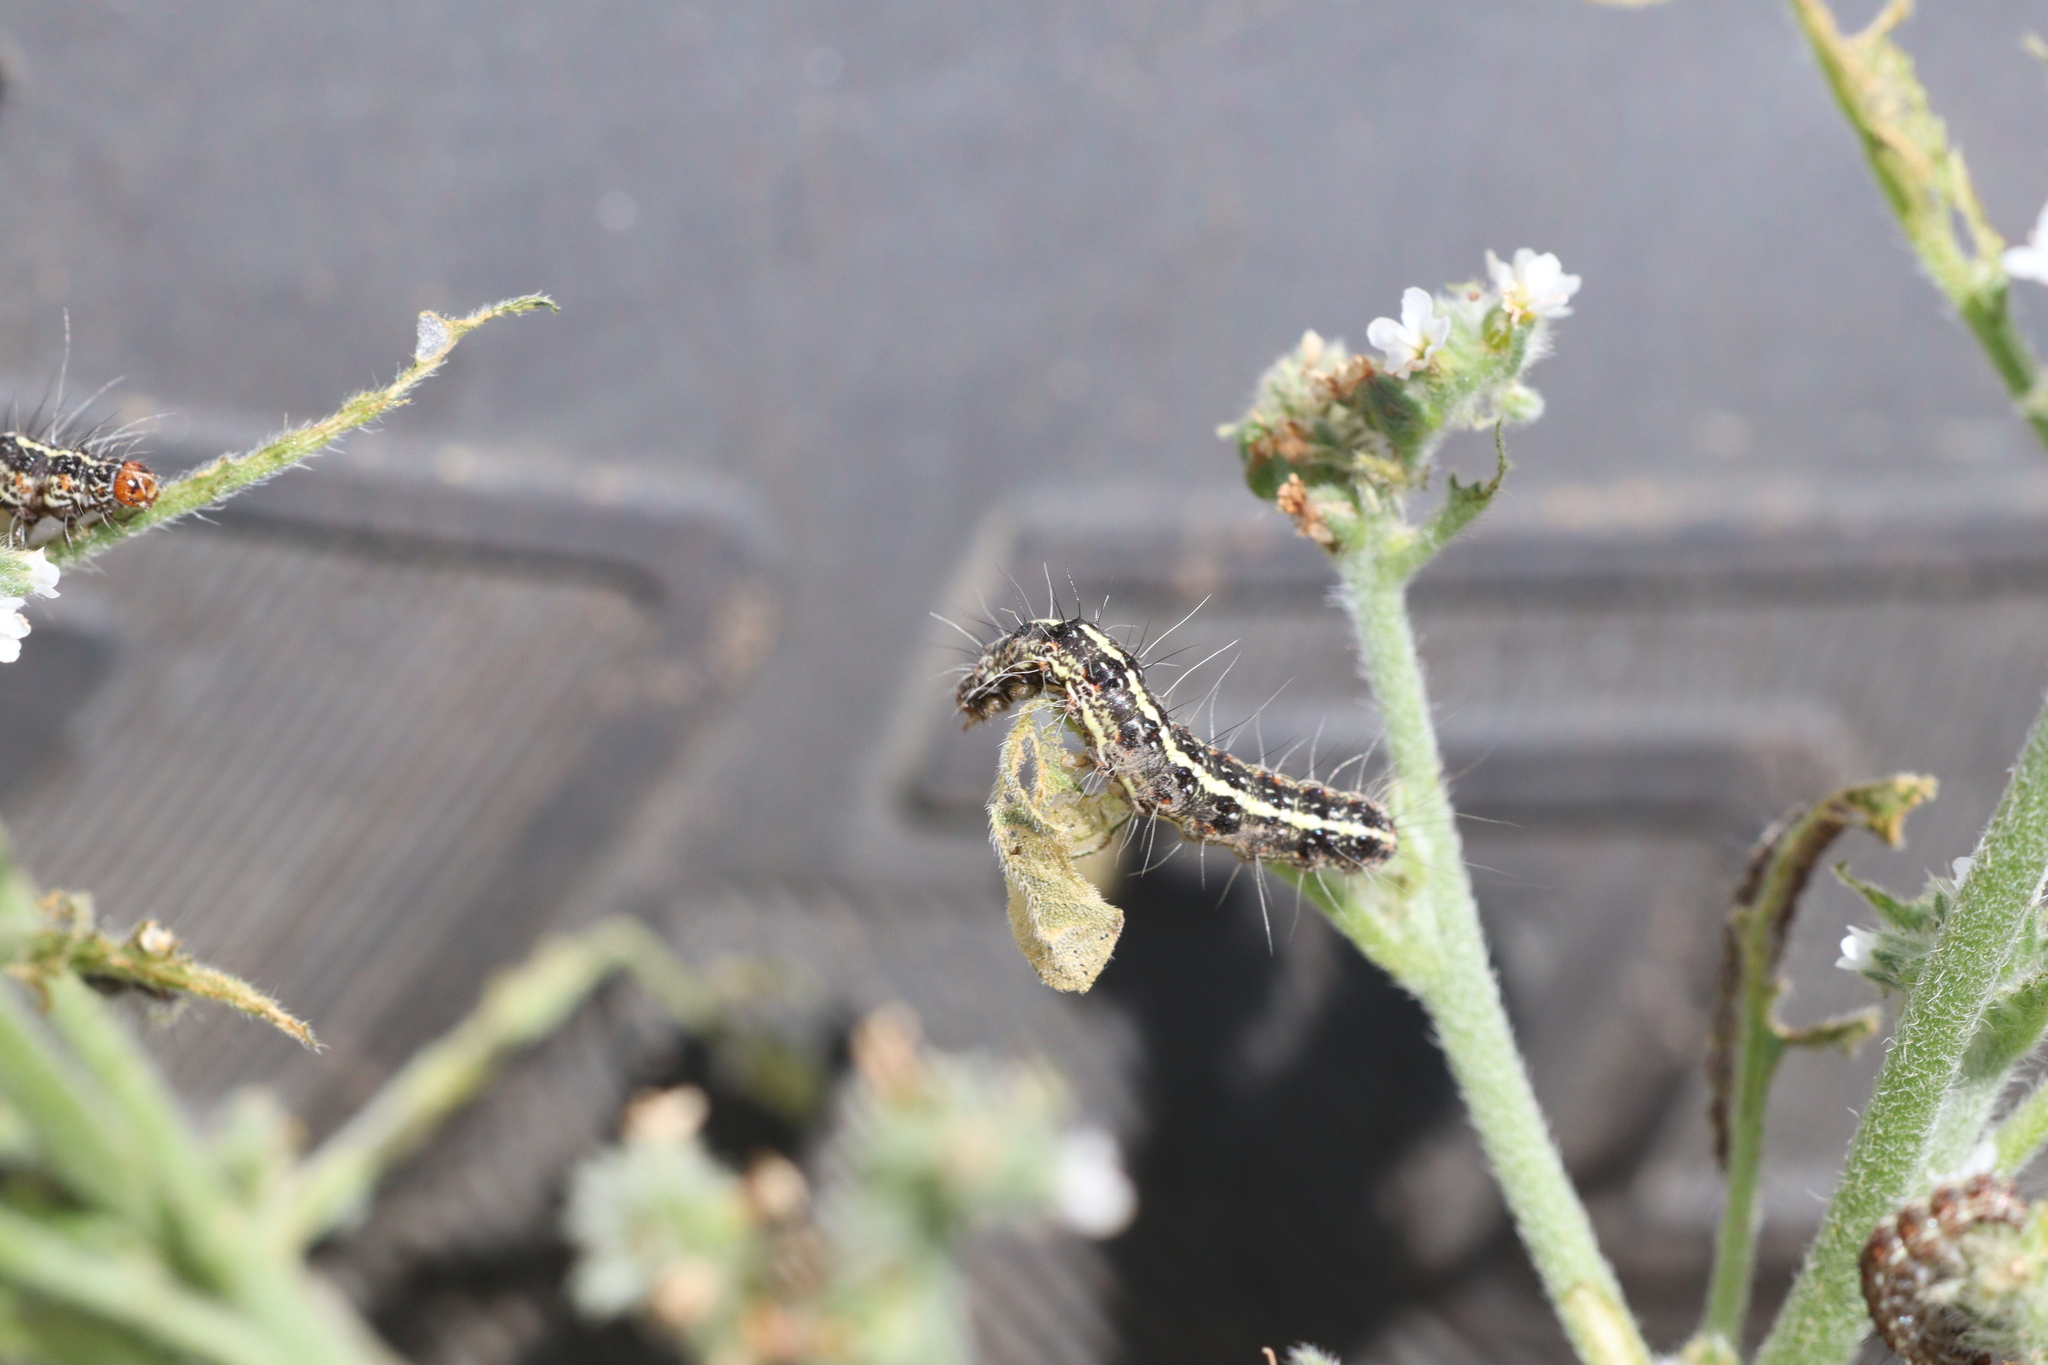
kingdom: Animalia
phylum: Arthropoda
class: Insecta
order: Lepidoptera
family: Erebidae
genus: Utetheisa
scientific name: Utetheisa pulchelloides
